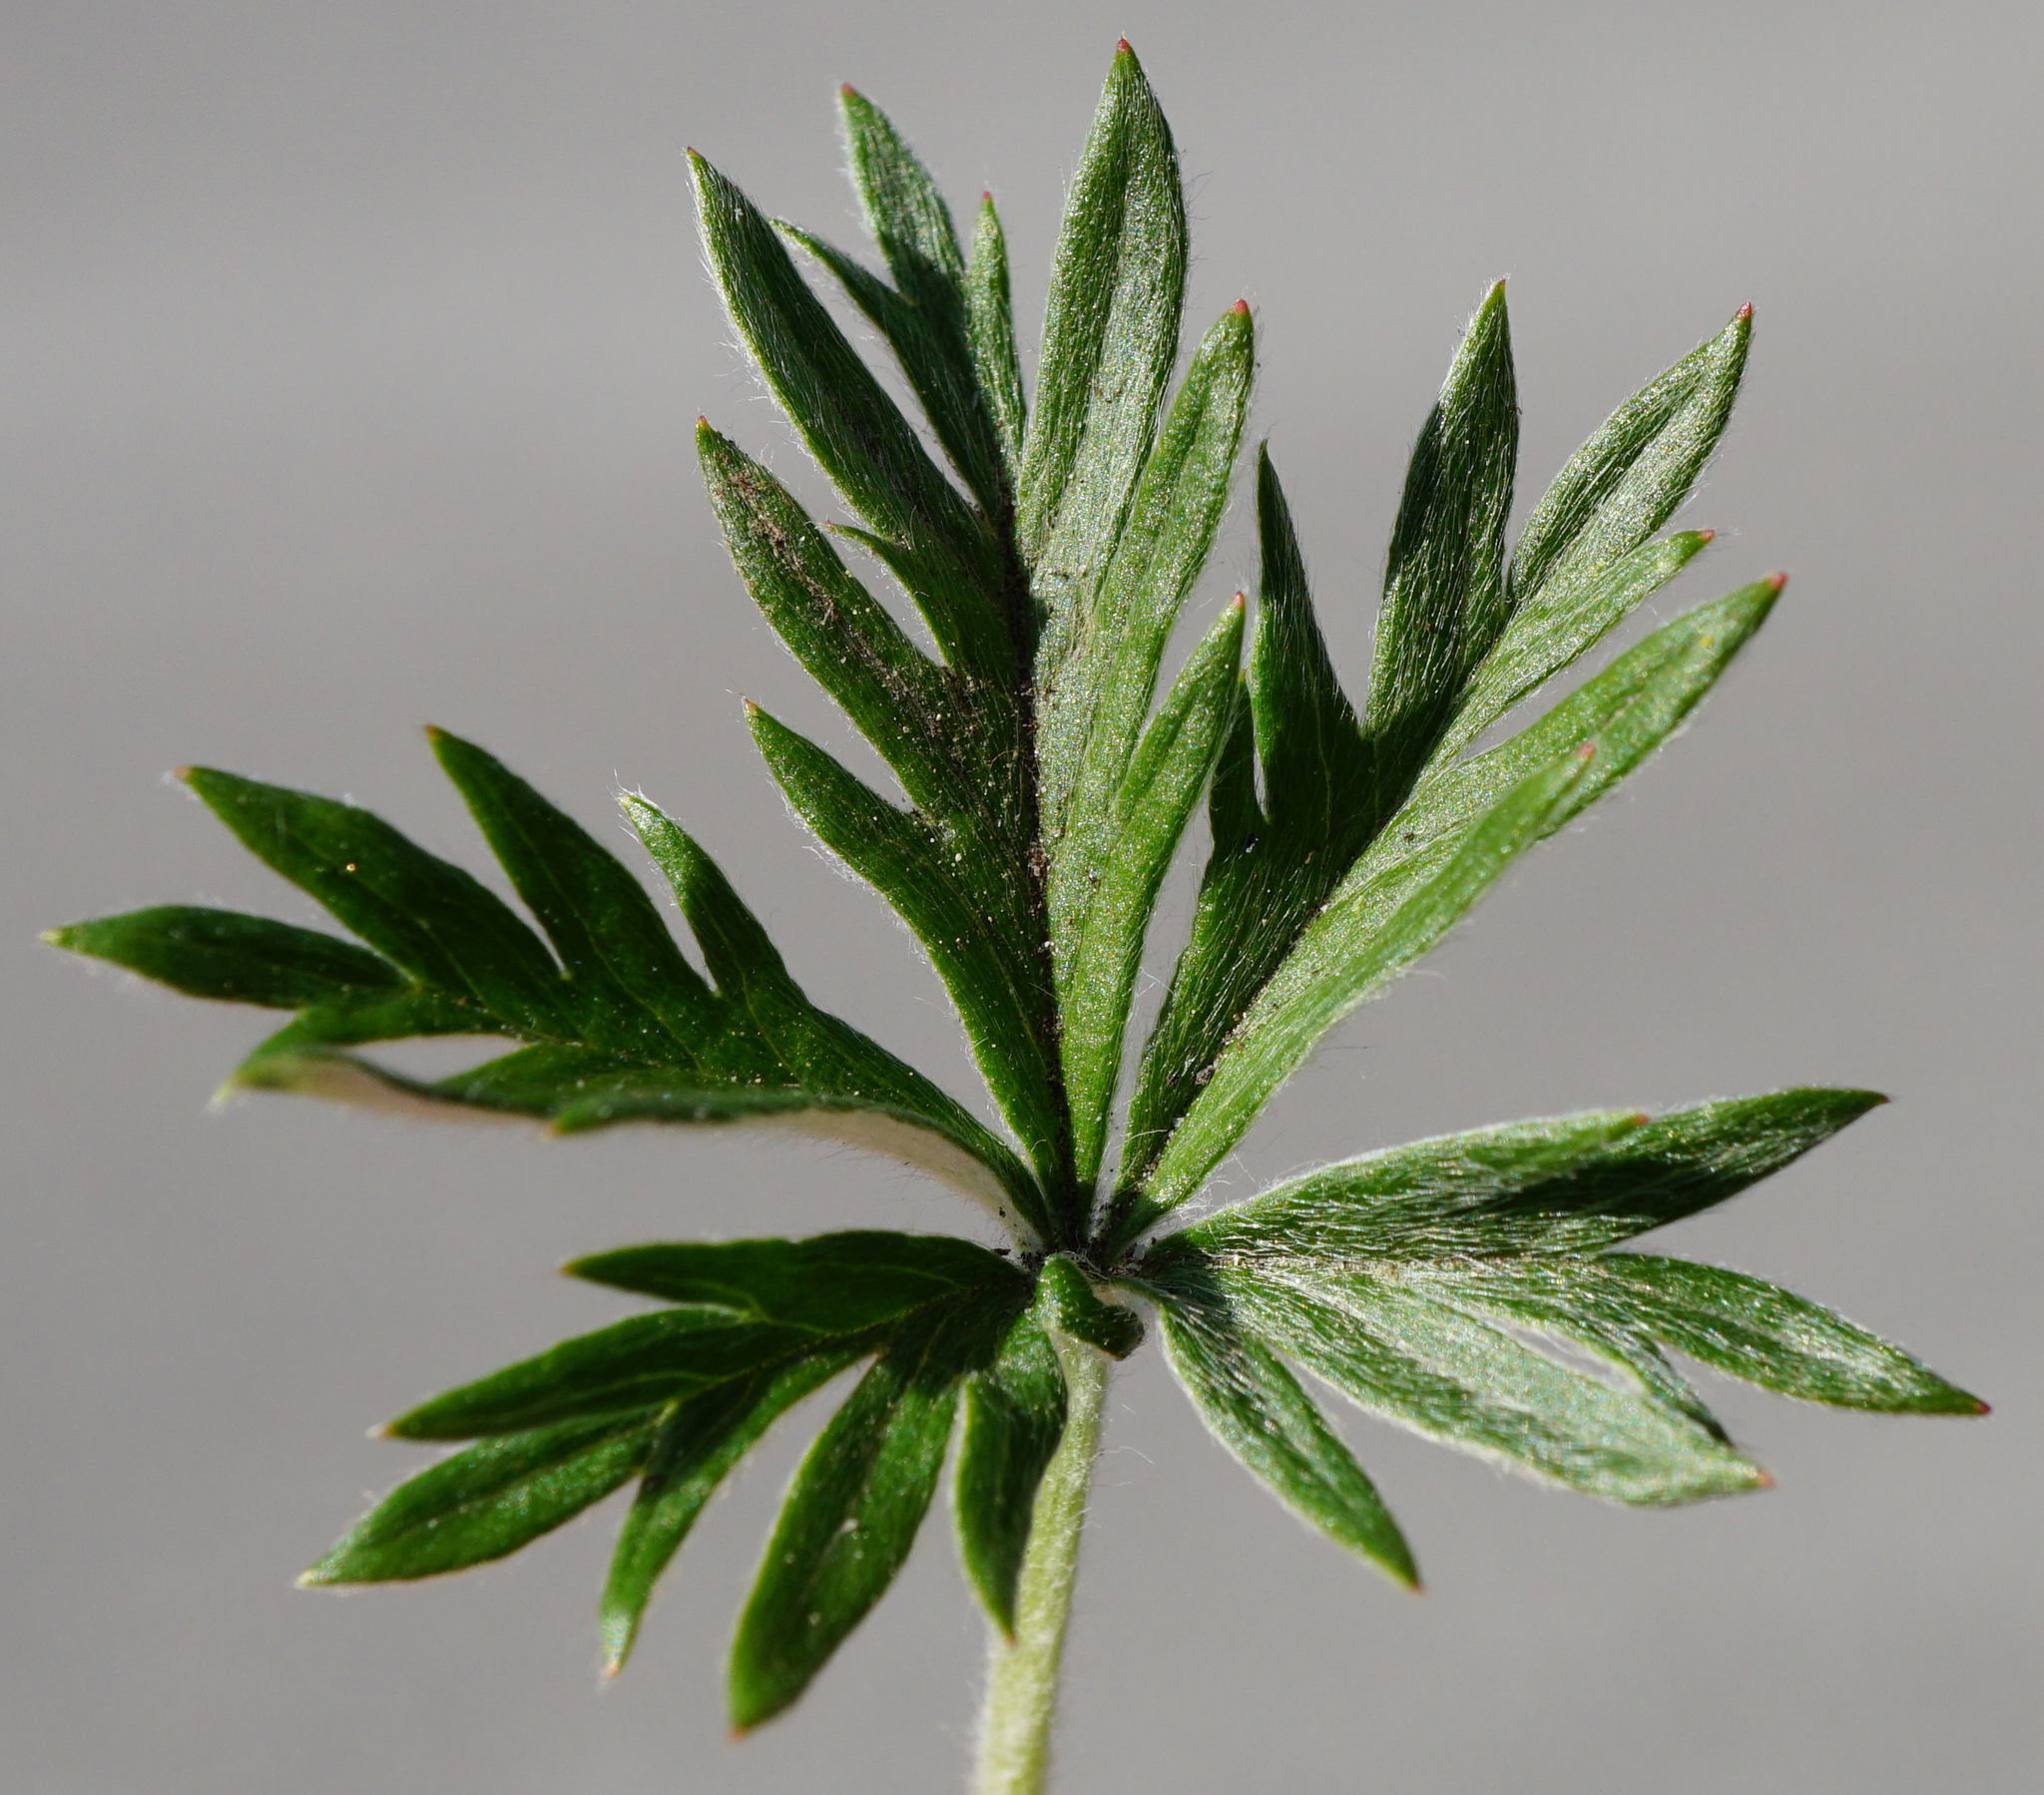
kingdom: Plantae
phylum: Tracheophyta
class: Magnoliopsida
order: Rosales
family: Rosaceae
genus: Potentilla
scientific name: Potentilla argentea
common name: Hoary cinquefoil
